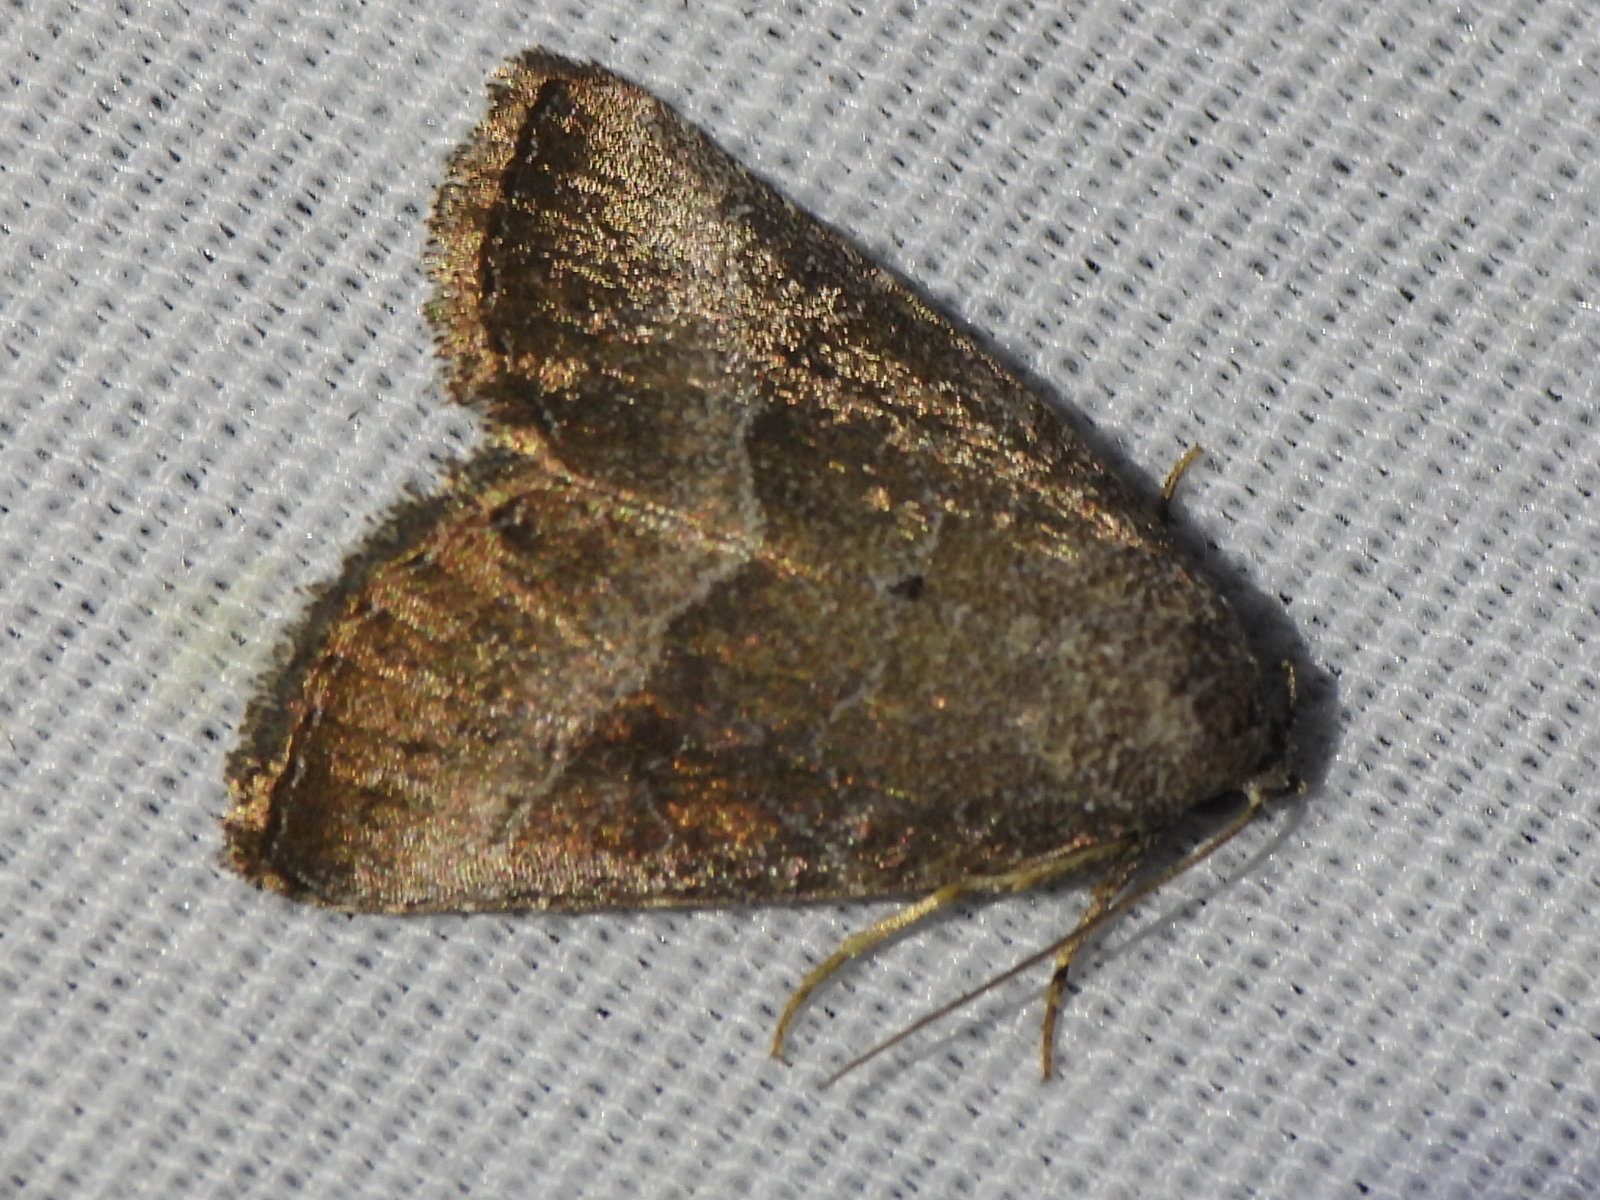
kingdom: Animalia
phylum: Arthropoda
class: Insecta
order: Lepidoptera
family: Noctuidae
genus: Ogdoconta
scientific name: Ogdoconta cinereola
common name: Common pinkband
